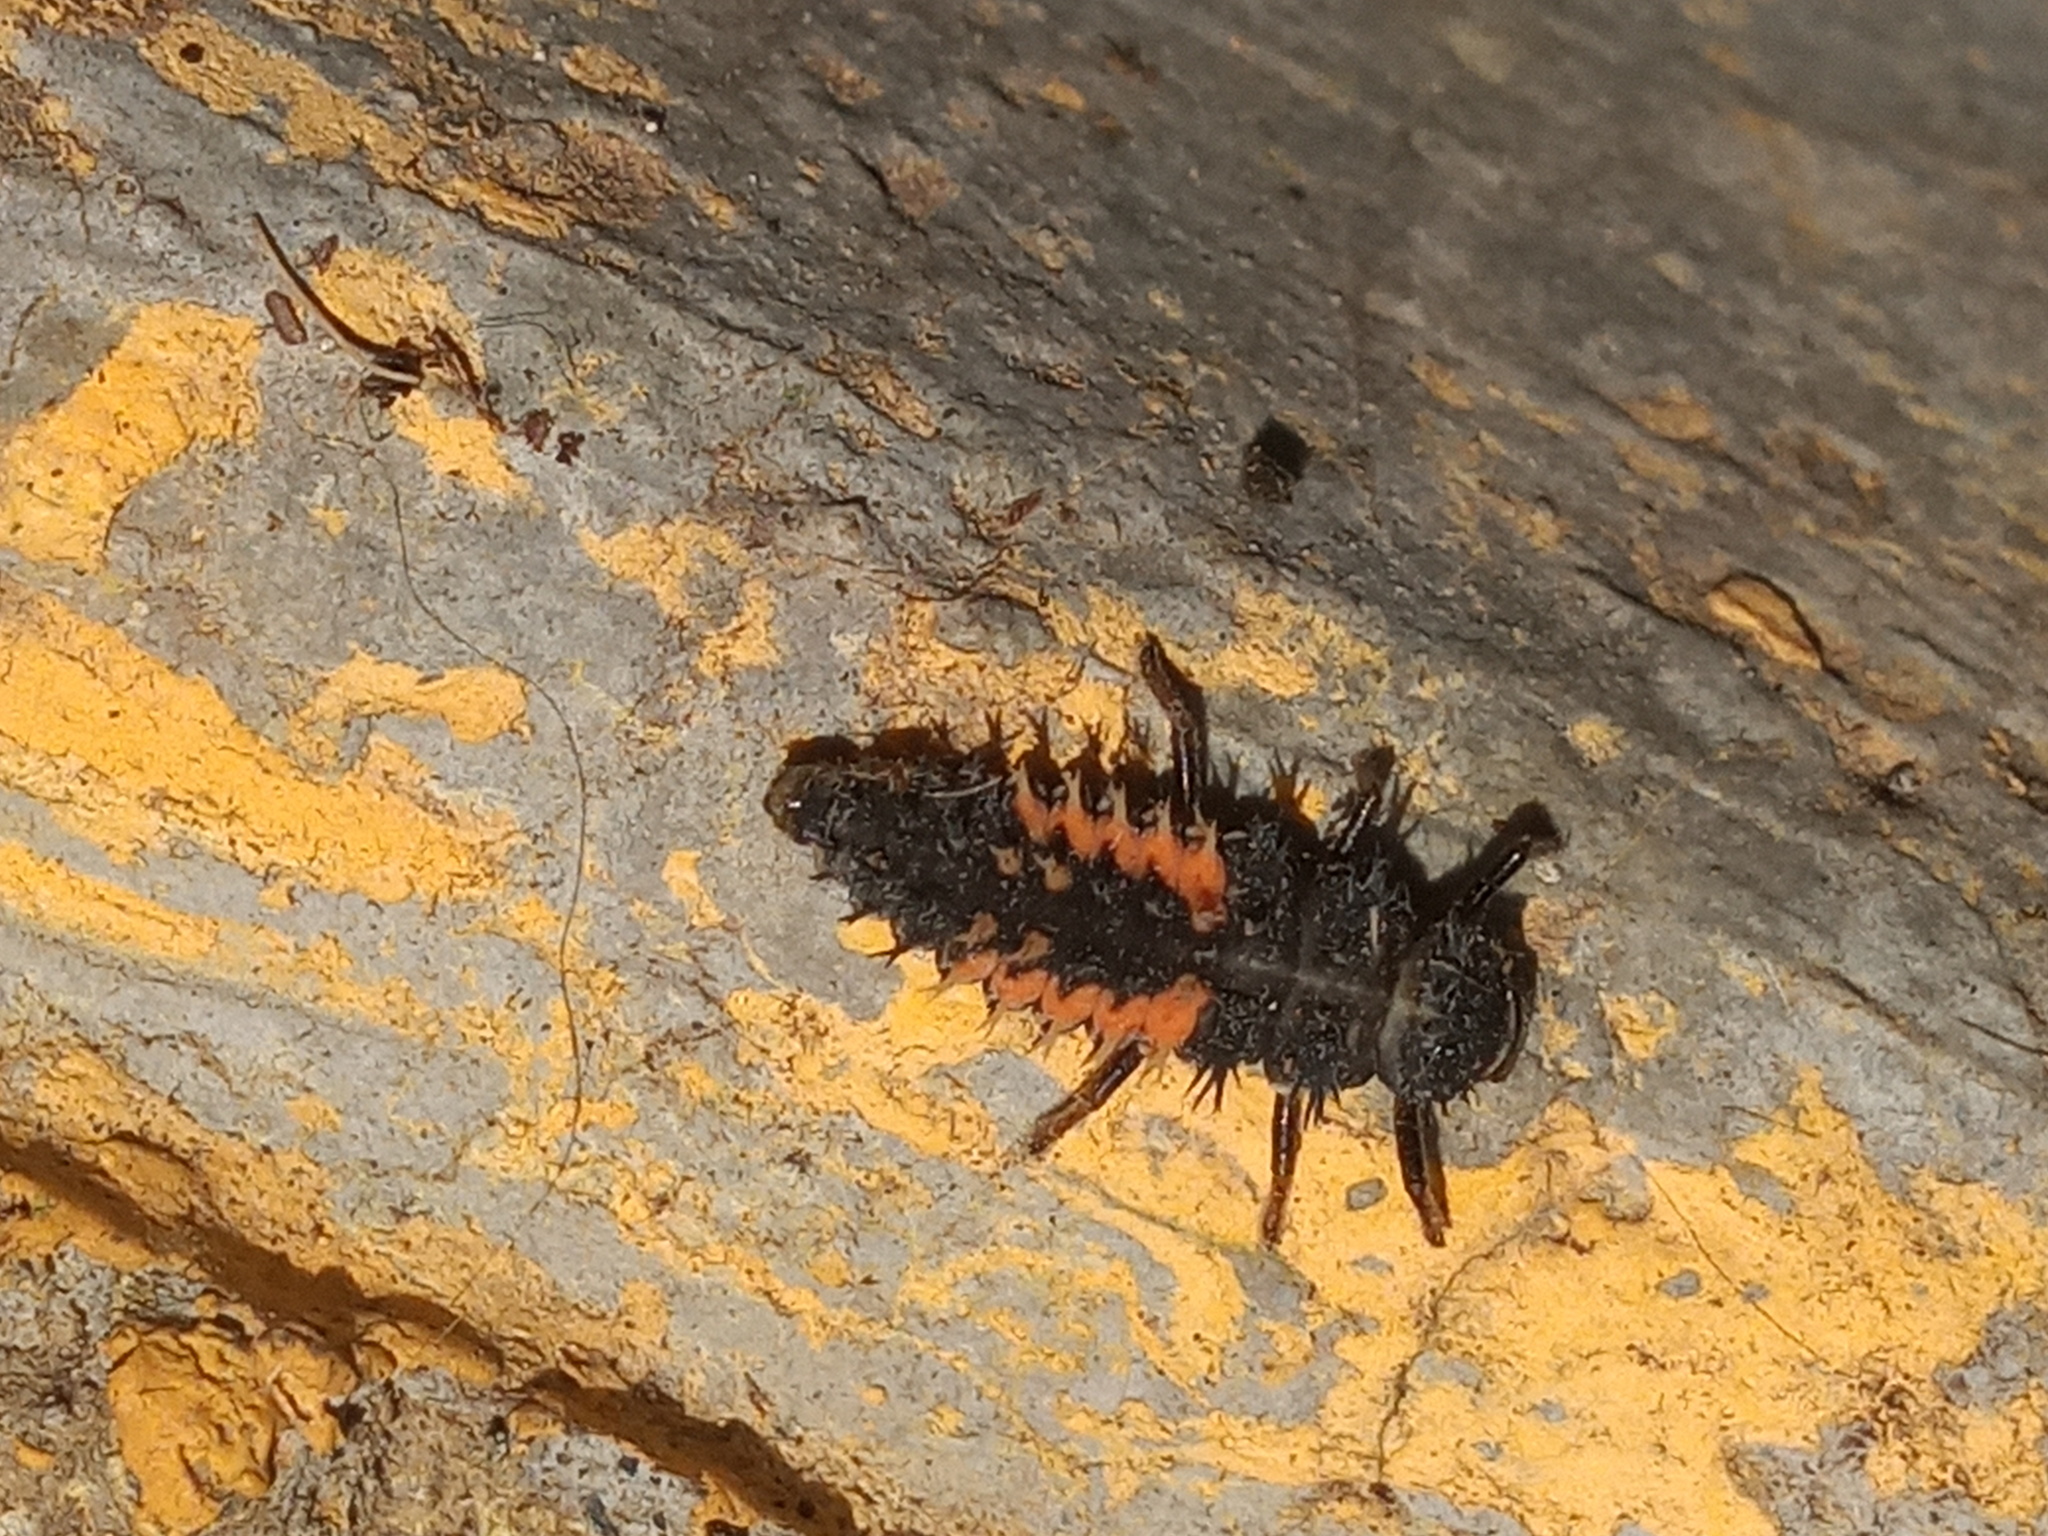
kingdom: Animalia
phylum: Arthropoda
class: Insecta
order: Coleoptera
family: Coccinellidae
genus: Harmonia
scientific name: Harmonia axyridis
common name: Harlequin ladybird
